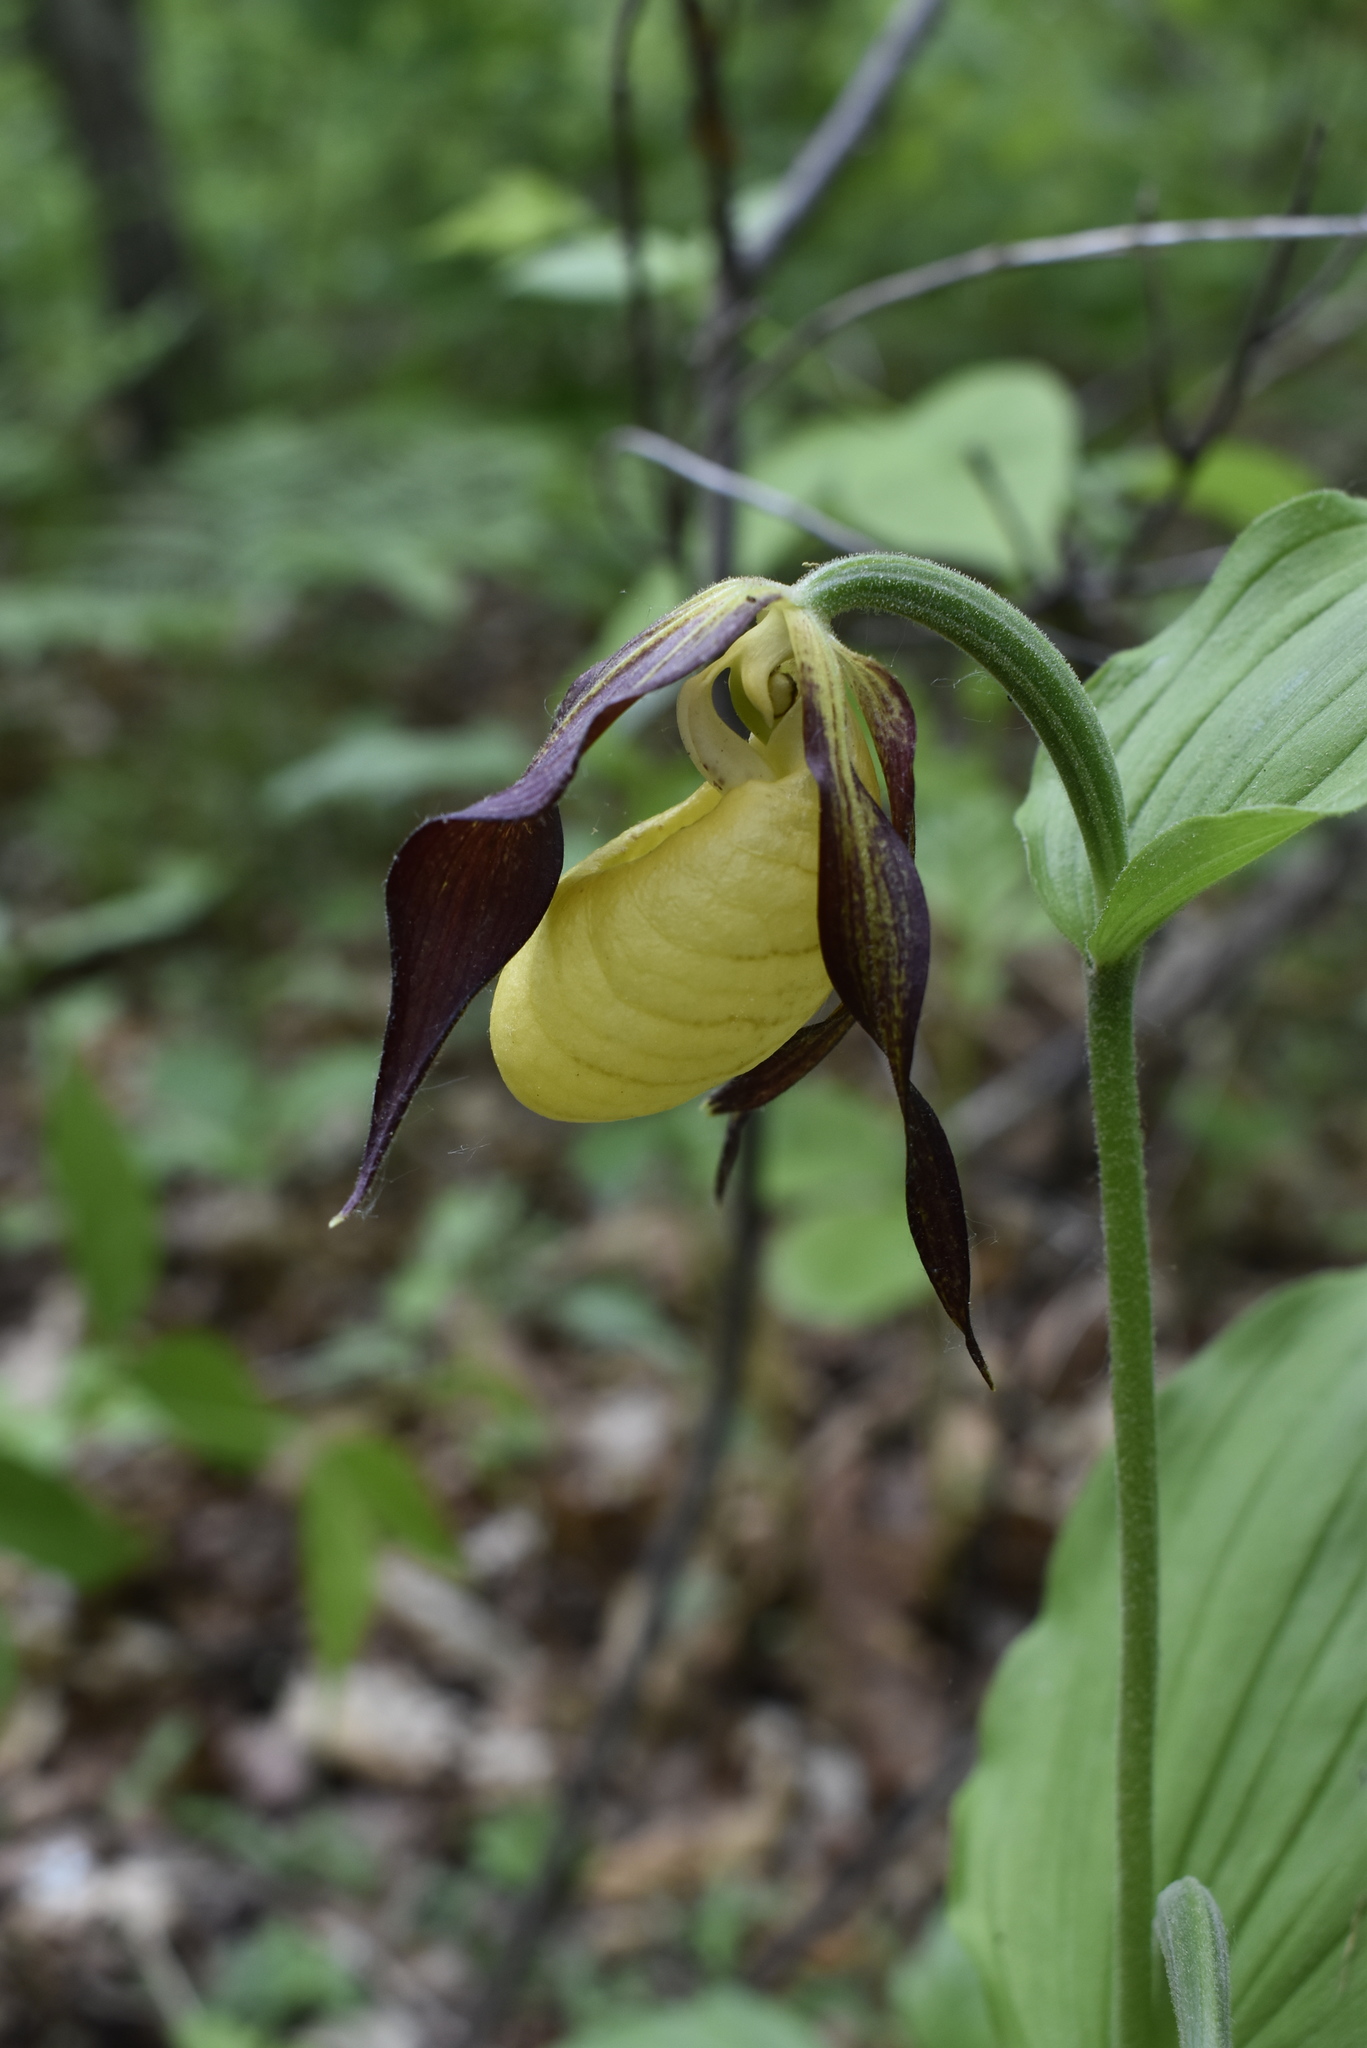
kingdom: Plantae
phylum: Tracheophyta
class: Liliopsida
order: Asparagales
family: Orchidaceae
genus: Cypripedium
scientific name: Cypripedium calceolus
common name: Lady's-slipper
